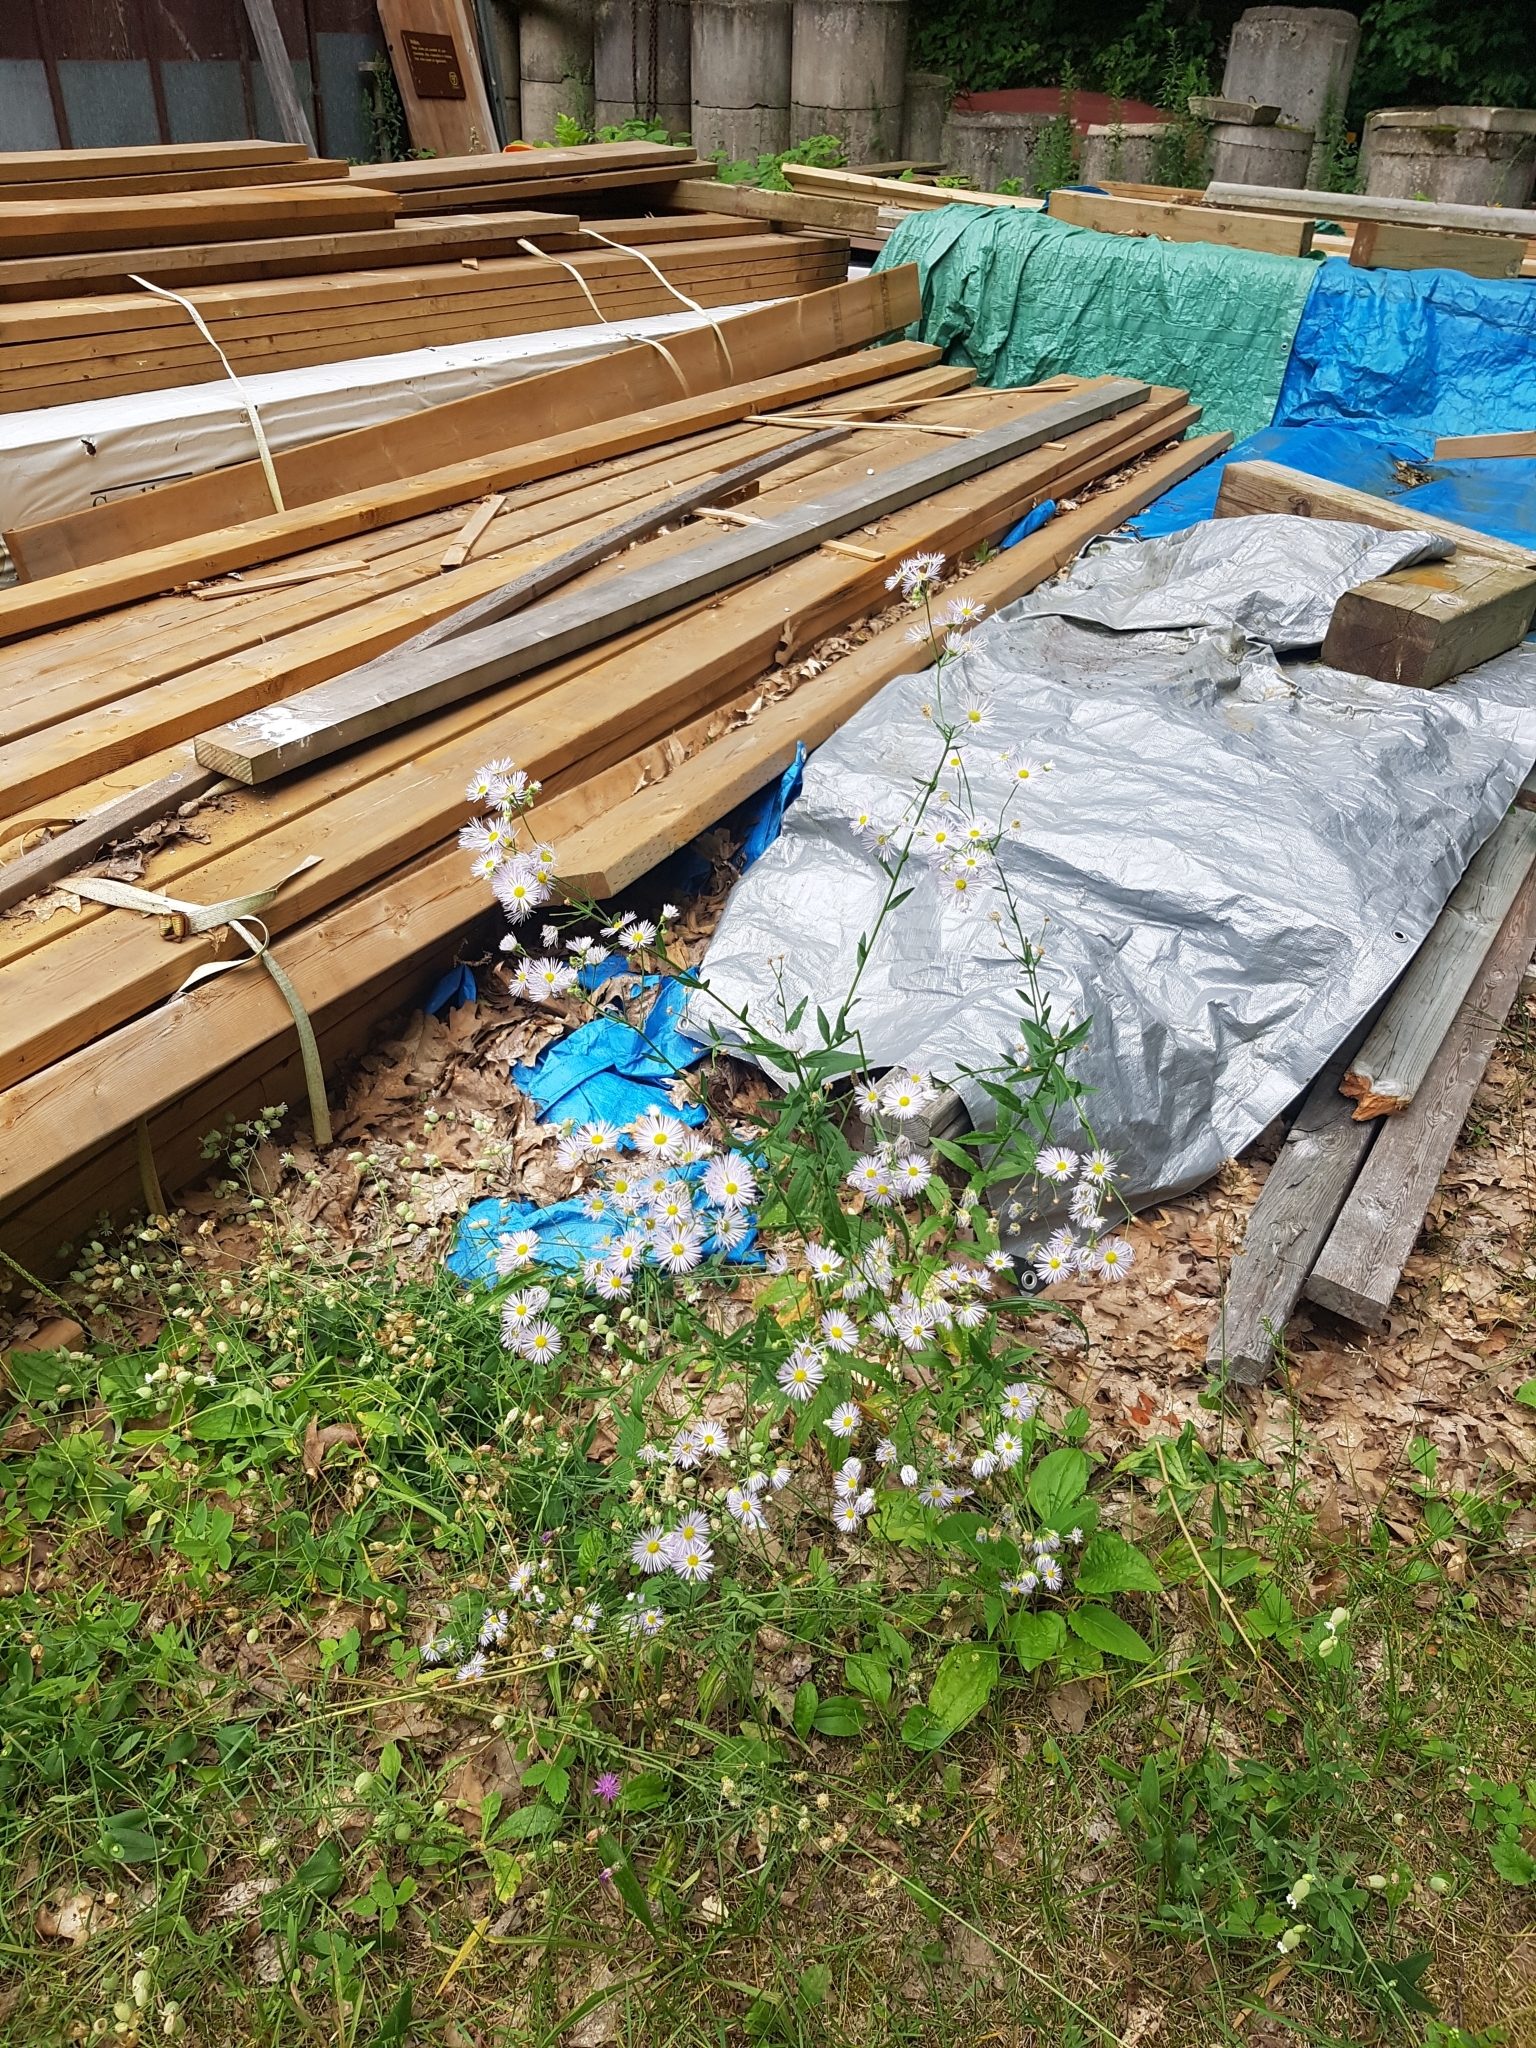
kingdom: Plantae
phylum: Tracheophyta
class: Magnoliopsida
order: Asterales
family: Asteraceae
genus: Erigeron
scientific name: Erigeron annuus
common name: Tall fleabane
